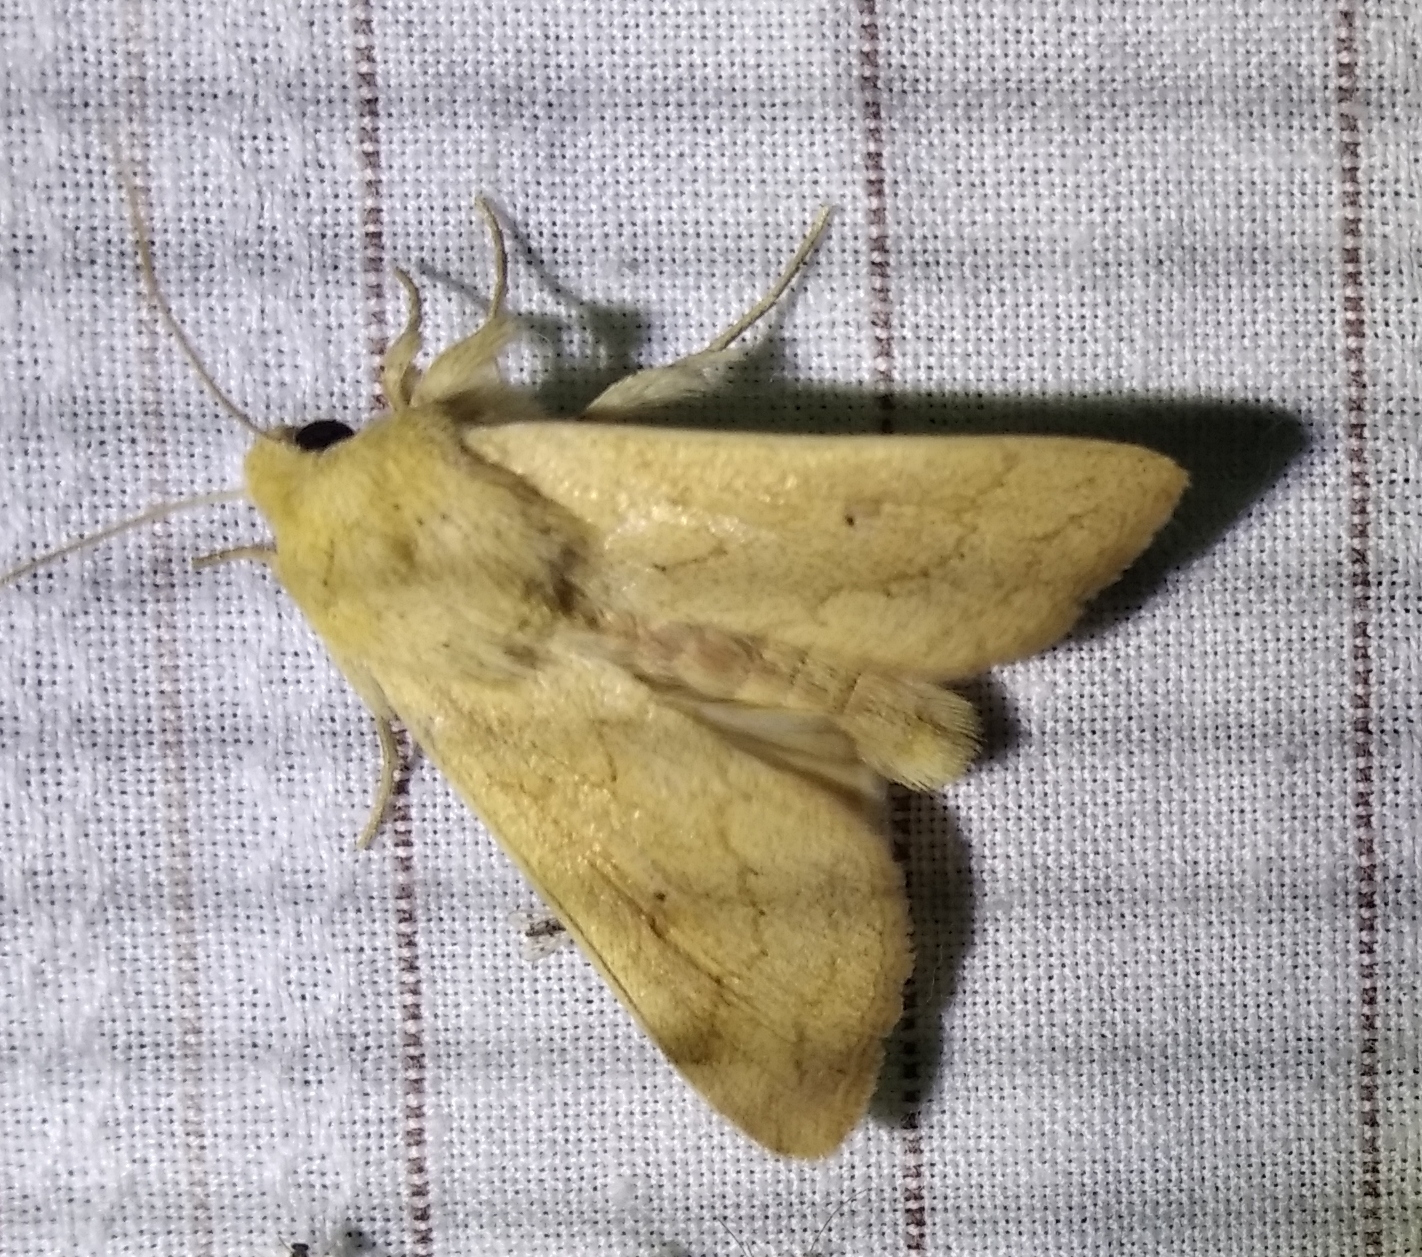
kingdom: Animalia
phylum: Arthropoda
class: Insecta
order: Lepidoptera
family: Noctuidae
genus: Mythimna
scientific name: Mythimna vitellina
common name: Delicate
